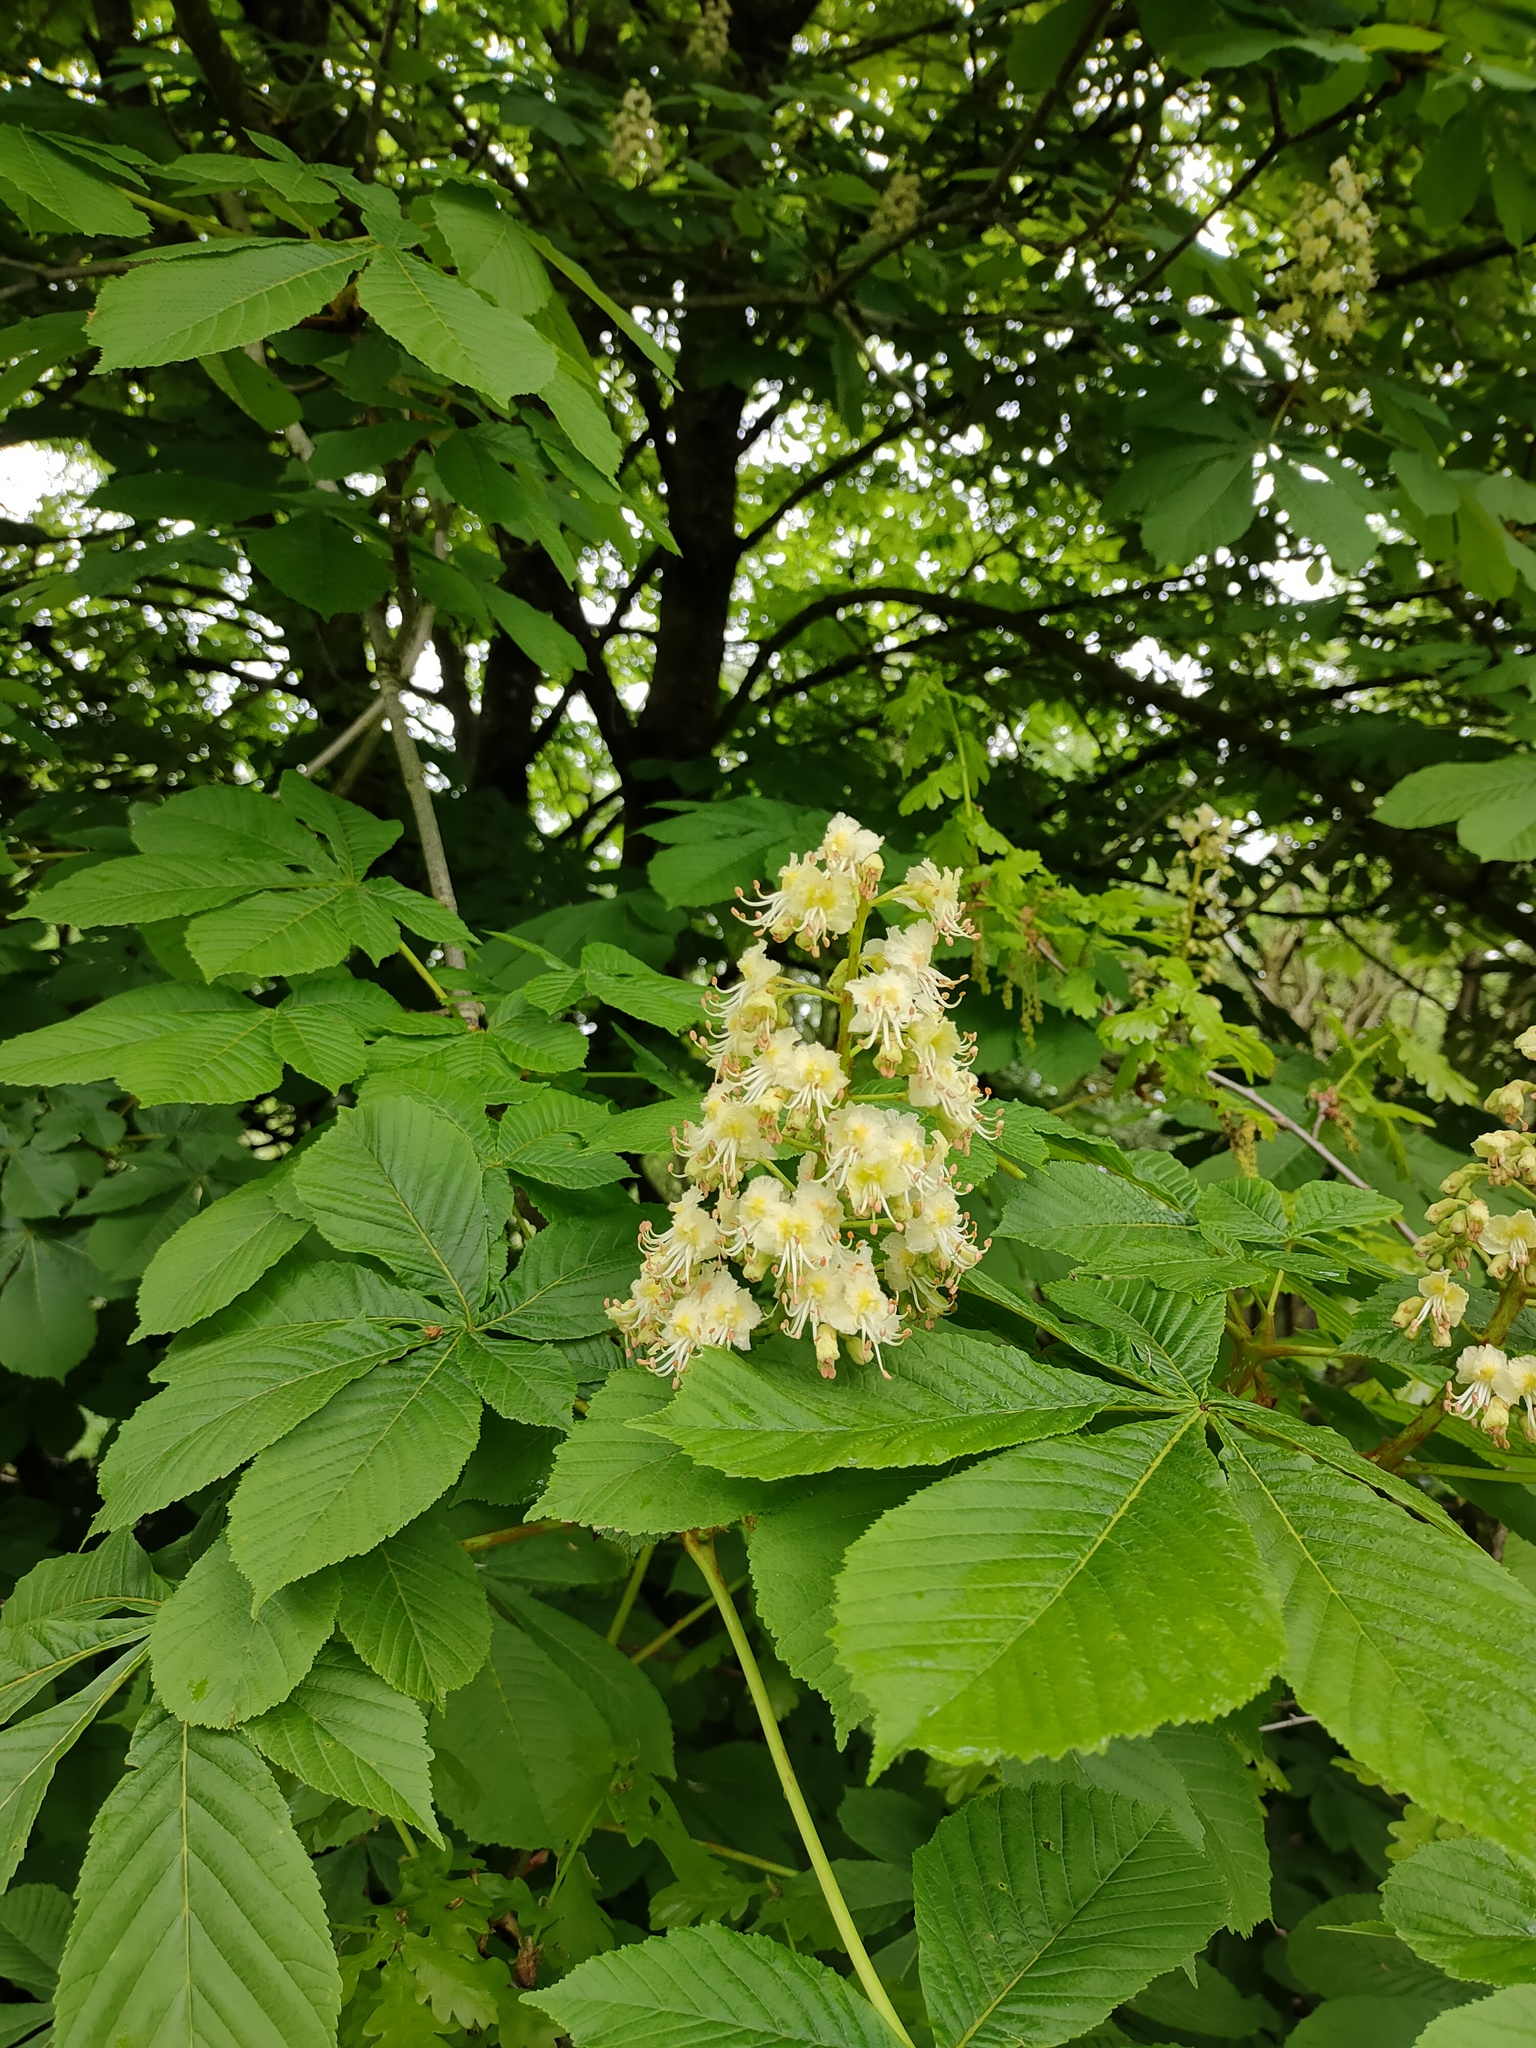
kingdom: Plantae
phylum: Tracheophyta
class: Magnoliopsida
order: Sapindales
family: Sapindaceae
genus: Aesculus
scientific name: Aesculus hippocastanum
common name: Horse-chestnut
